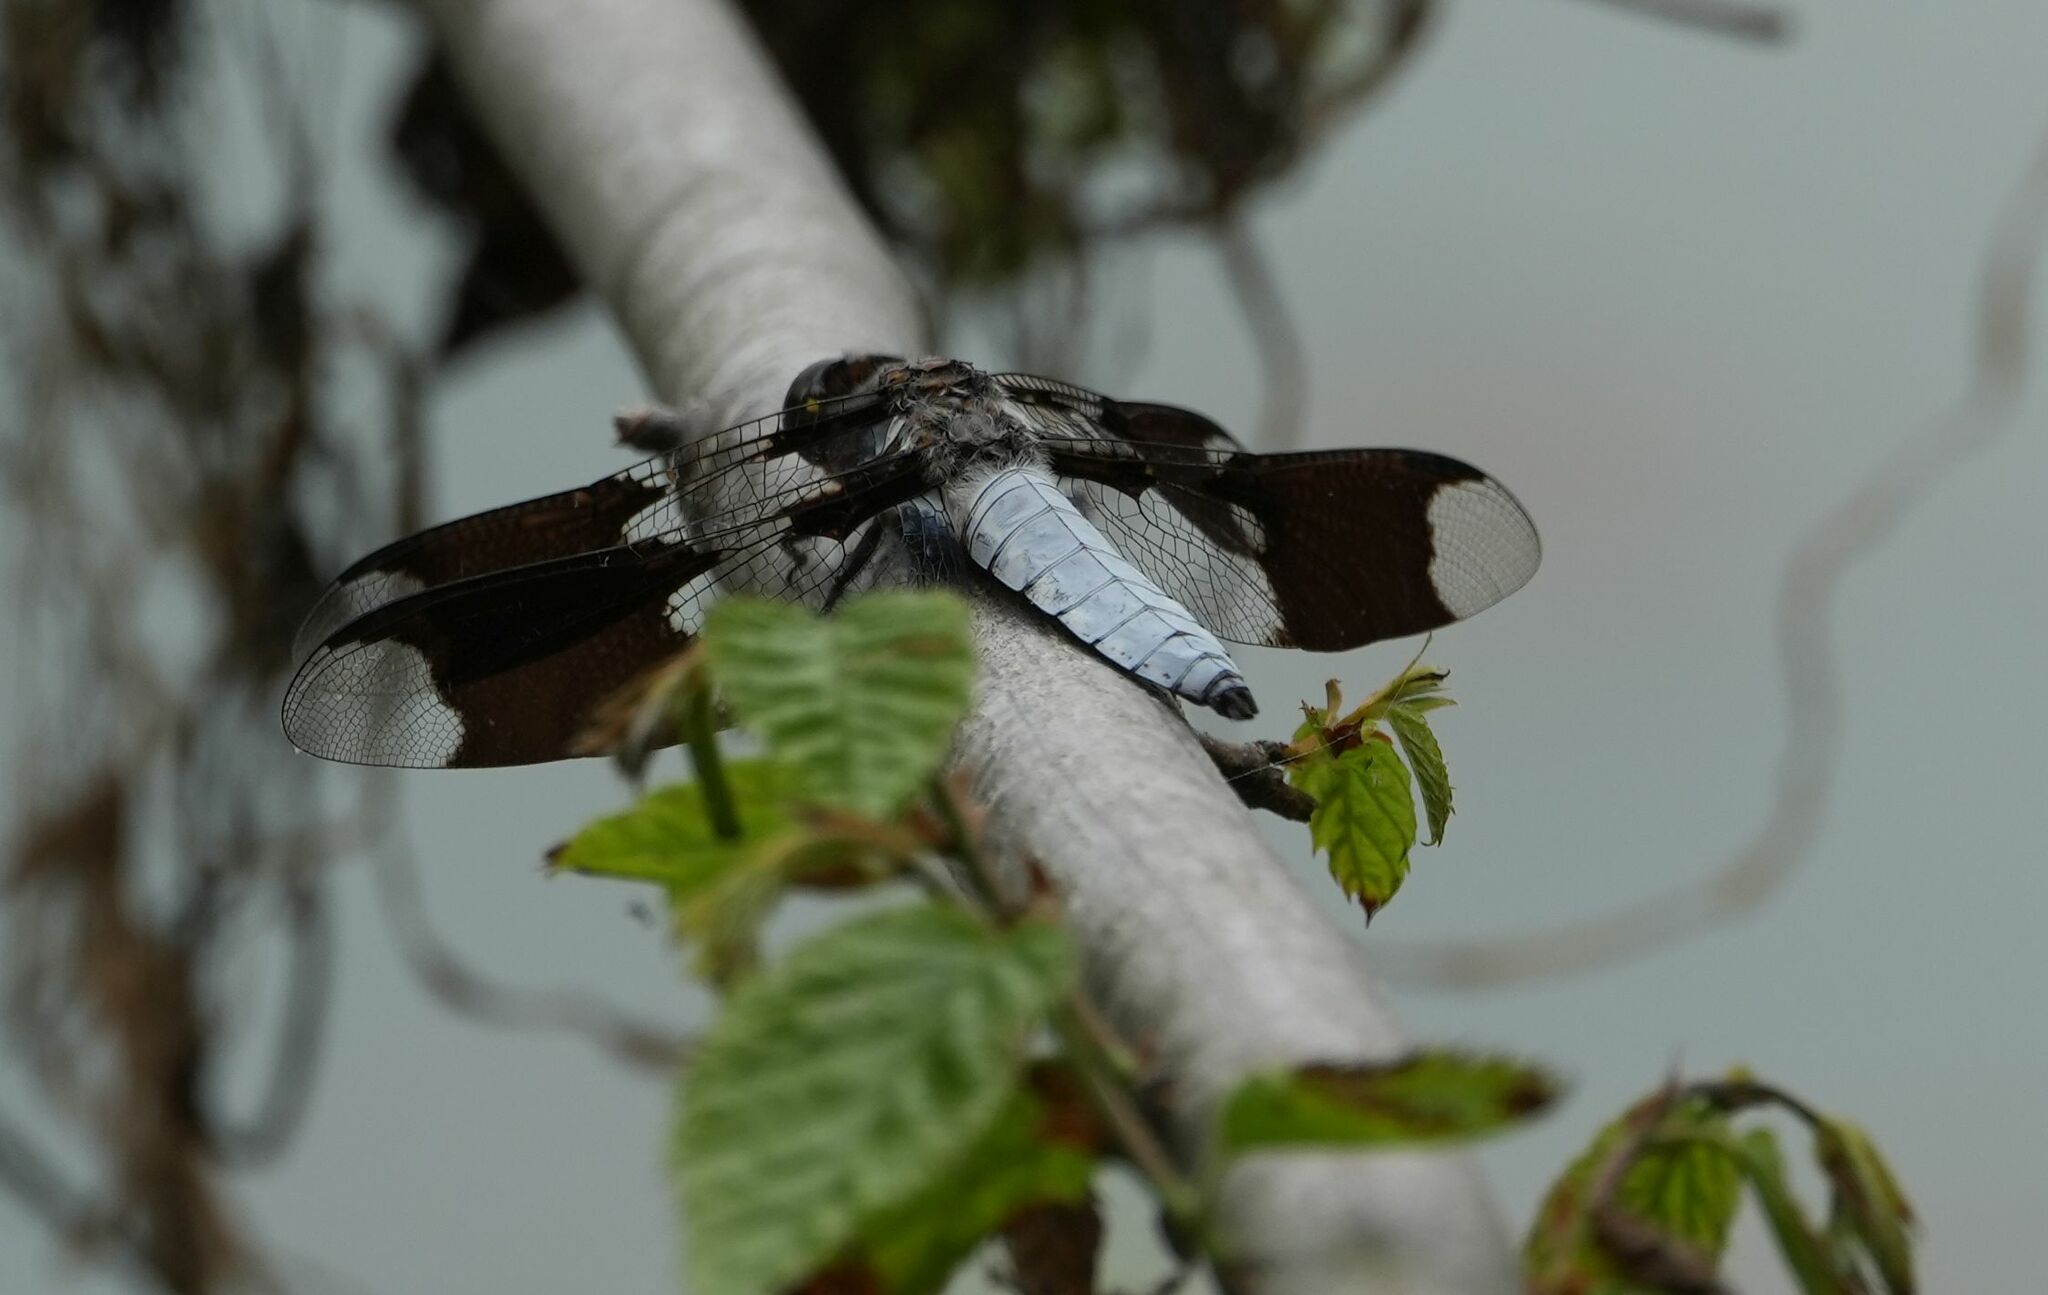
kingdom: Animalia
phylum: Arthropoda
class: Insecta
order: Odonata
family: Libellulidae
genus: Plathemis
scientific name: Plathemis lydia
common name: Common whitetail
